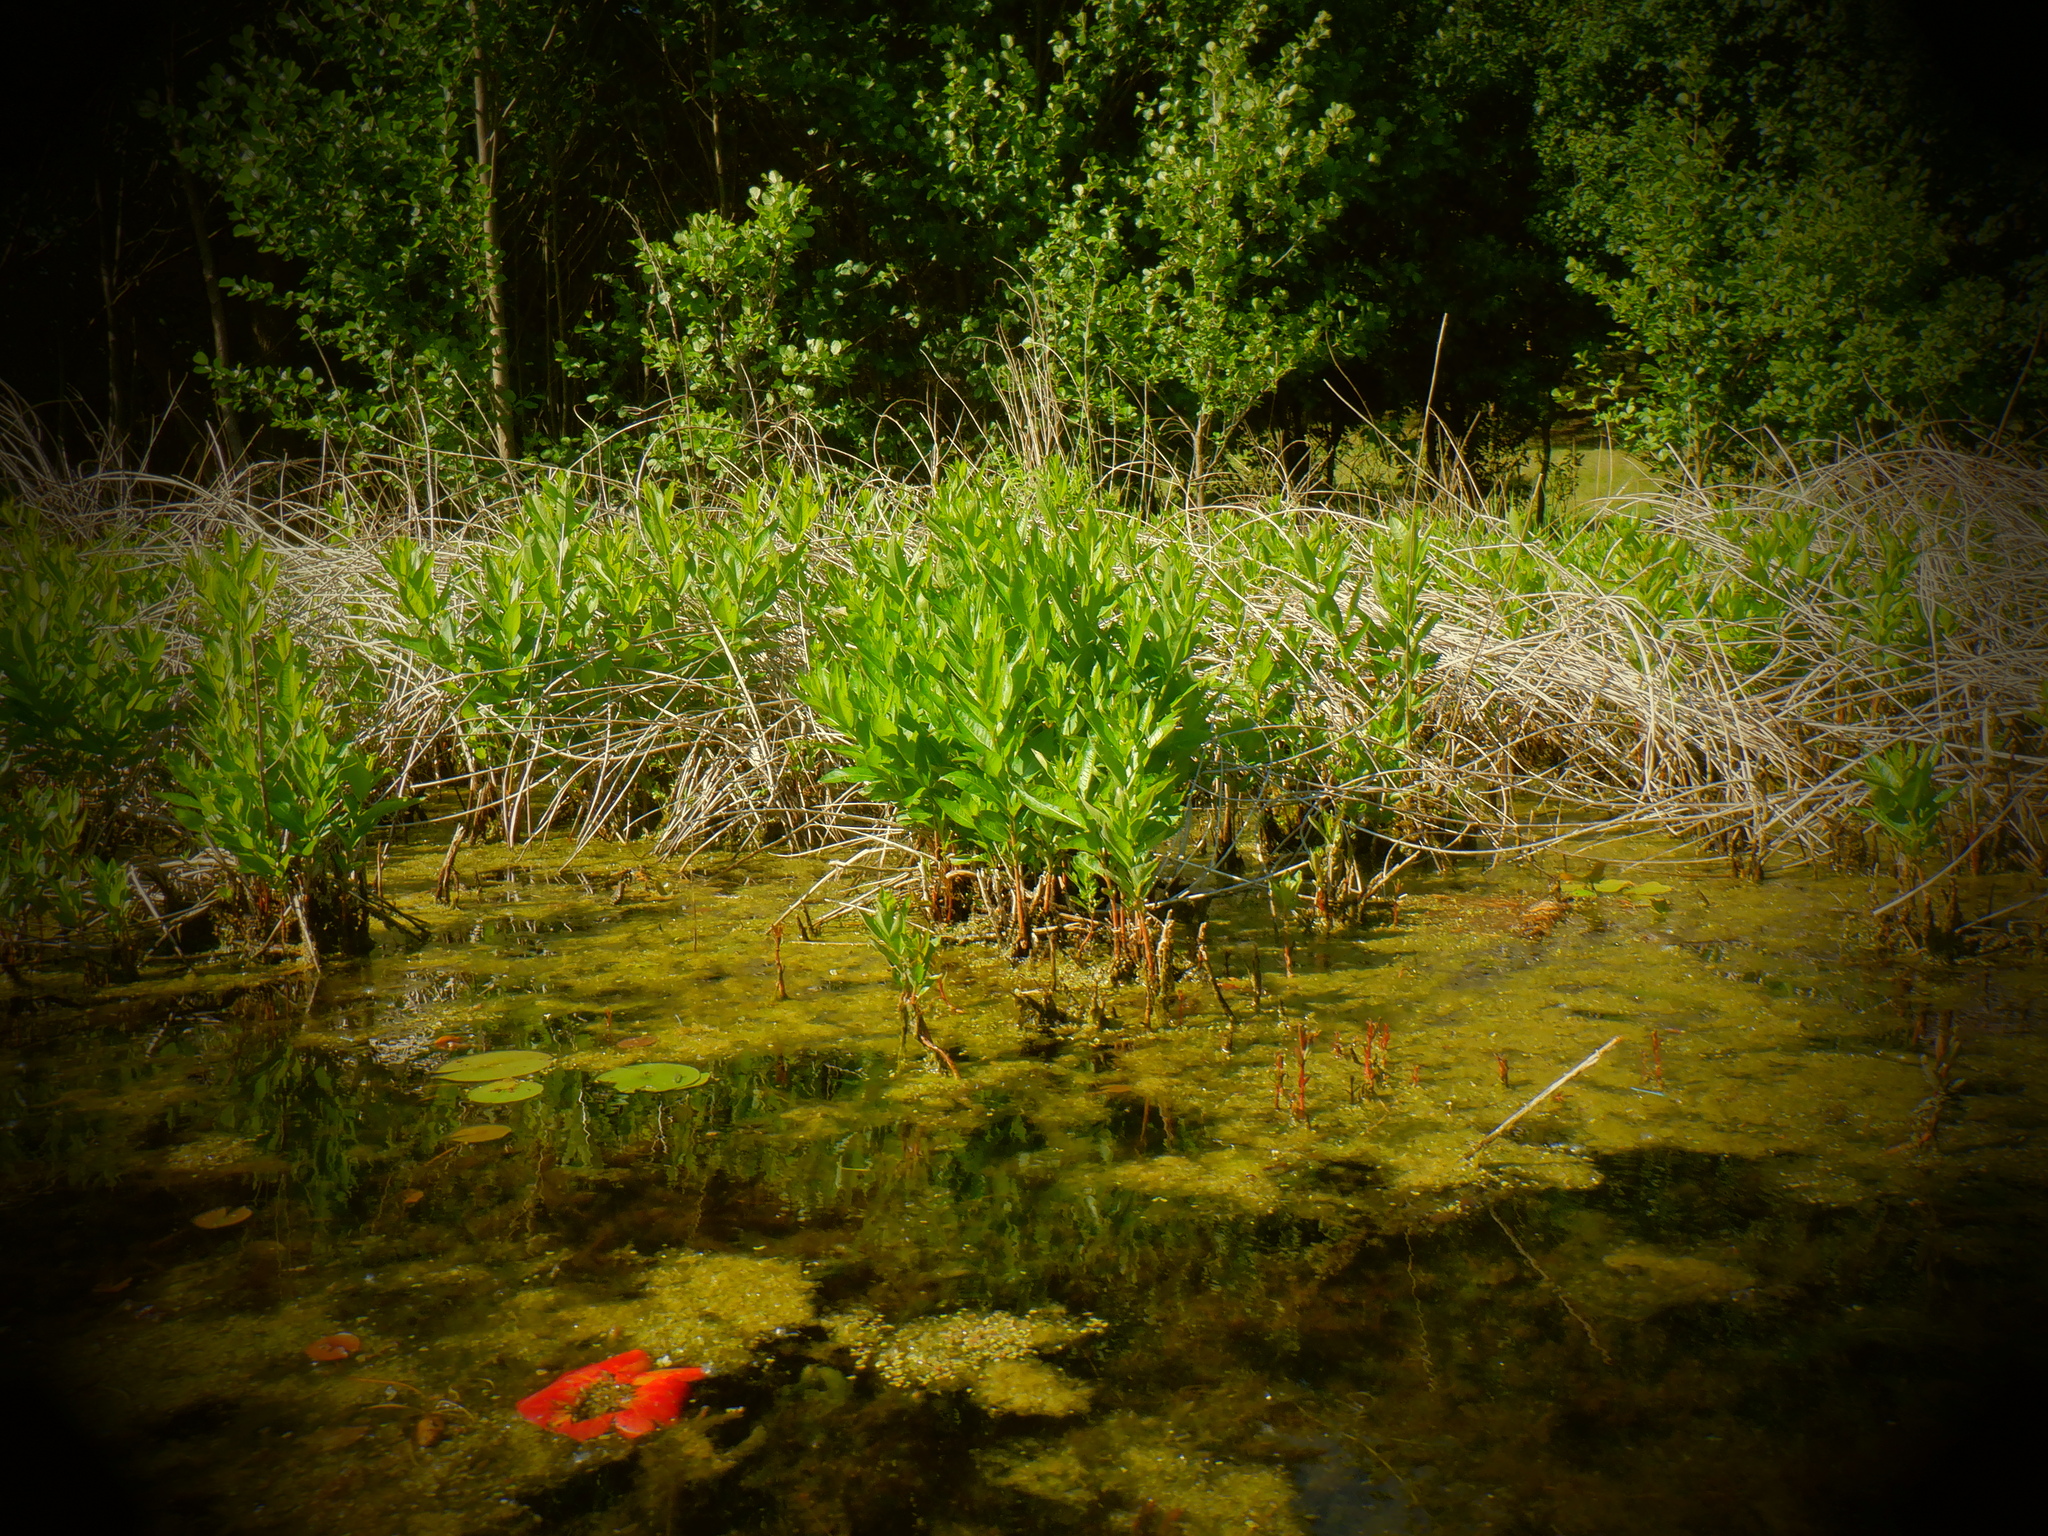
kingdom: Plantae
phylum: Tracheophyta
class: Magnoliopsida
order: Myrtales
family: Lythraceae
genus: Decodon
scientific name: Decodon verticillatus
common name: Hairy swamp loosestrife
